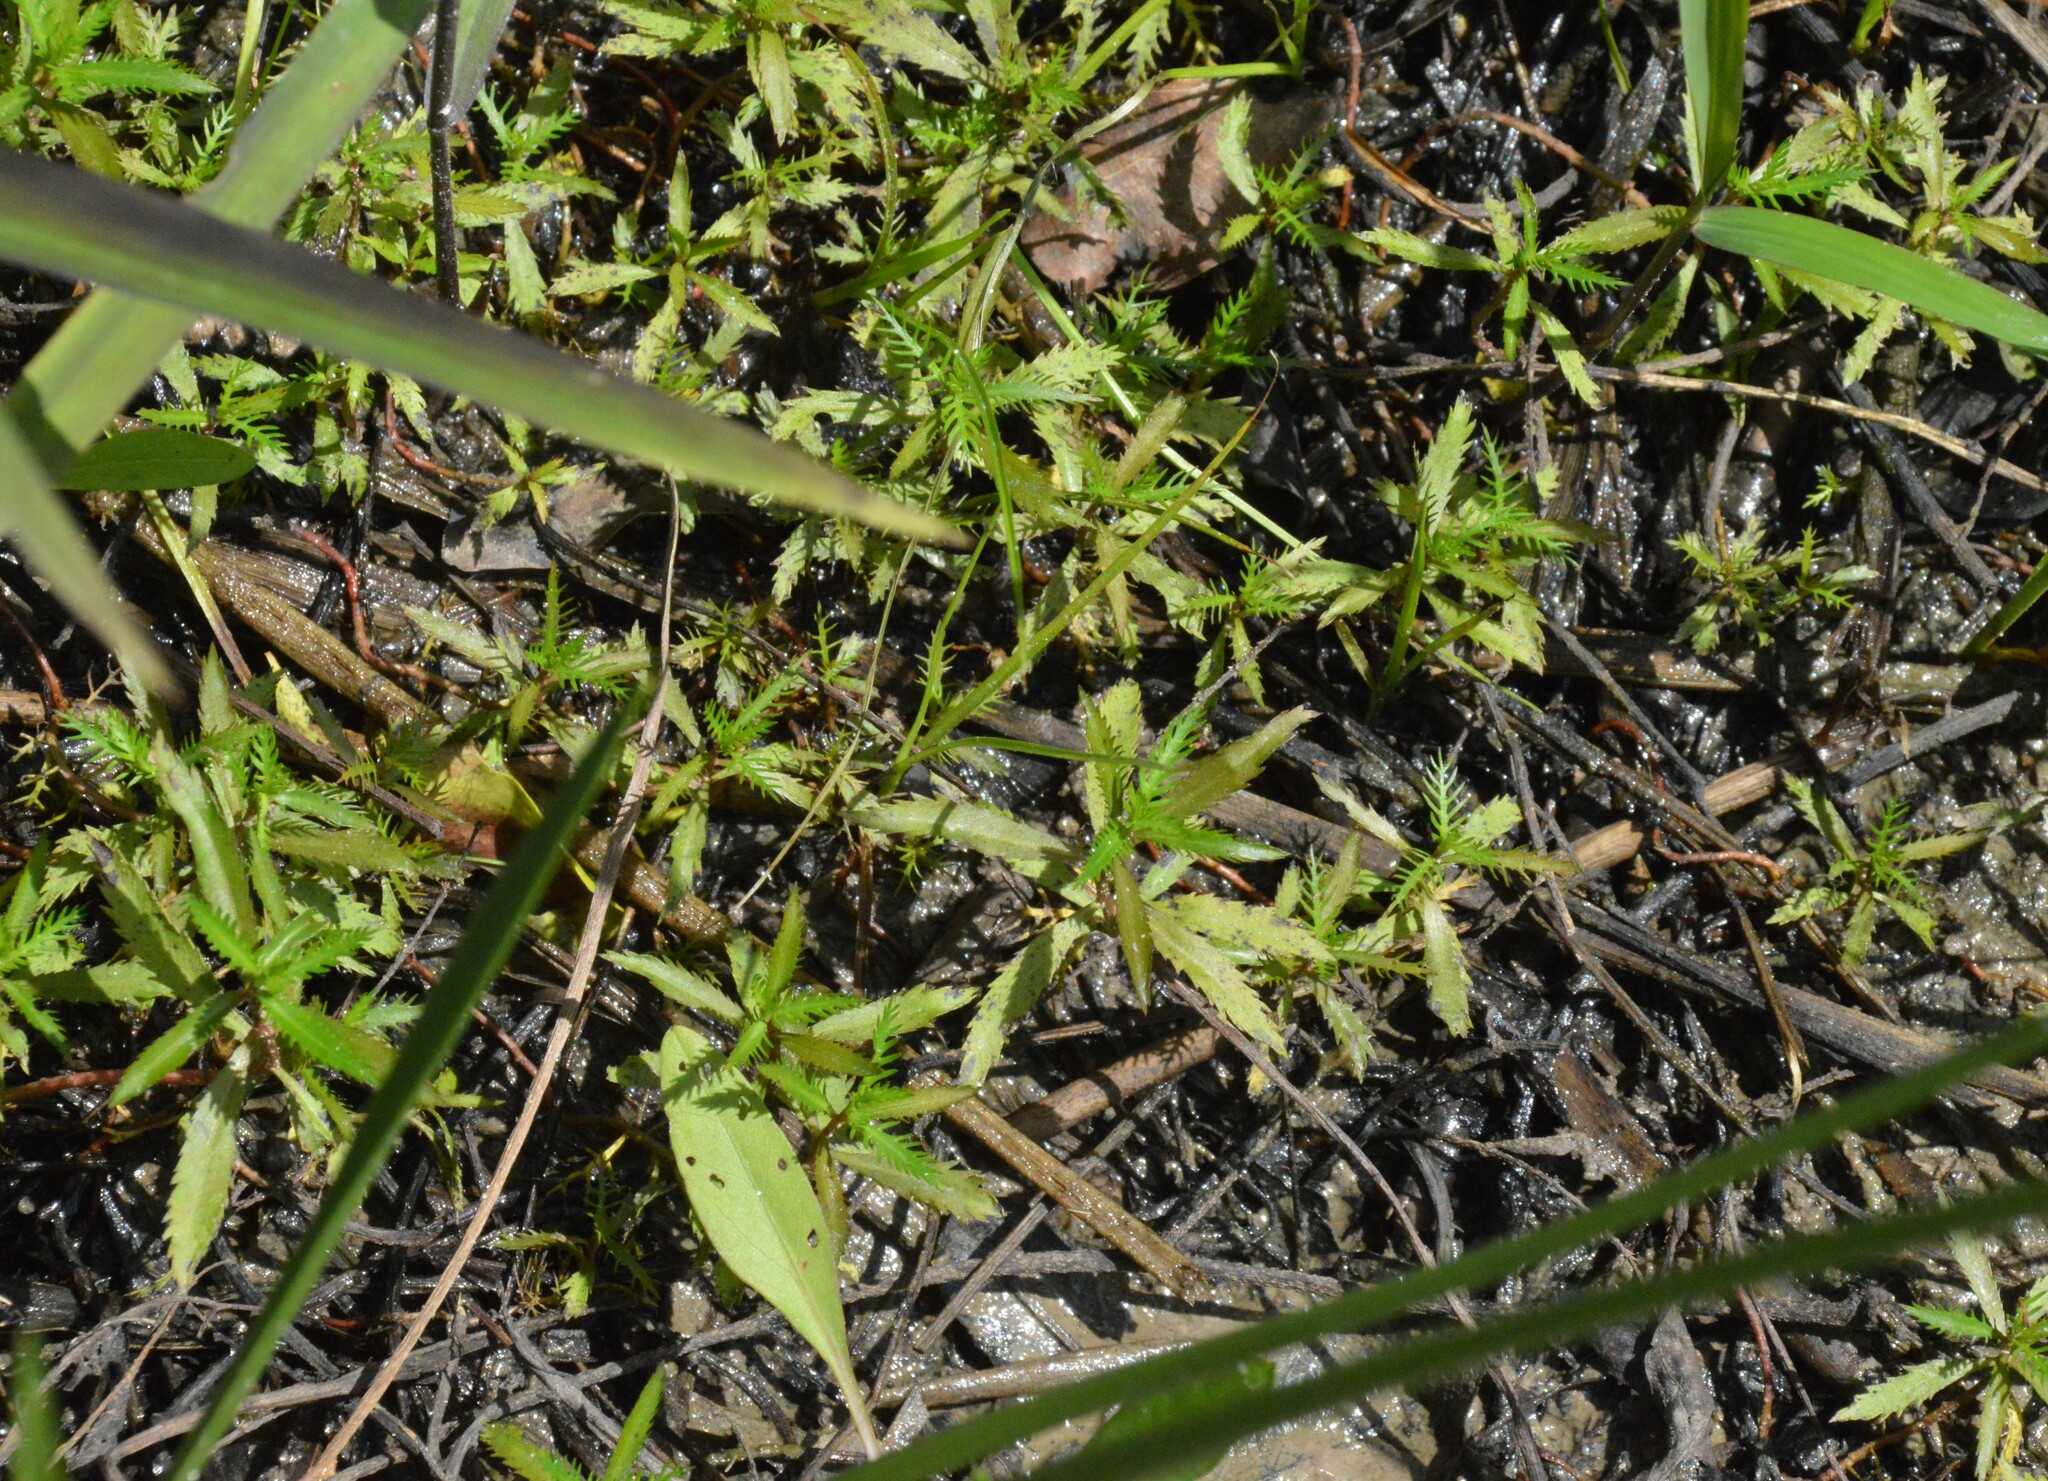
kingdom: Plantae
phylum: Tracheophyta
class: Magnoliopsida
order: Saxifragales
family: Haloragaceae
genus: Proserpinaca
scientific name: Proserpinaca palustris
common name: Marsh mermaidweed
